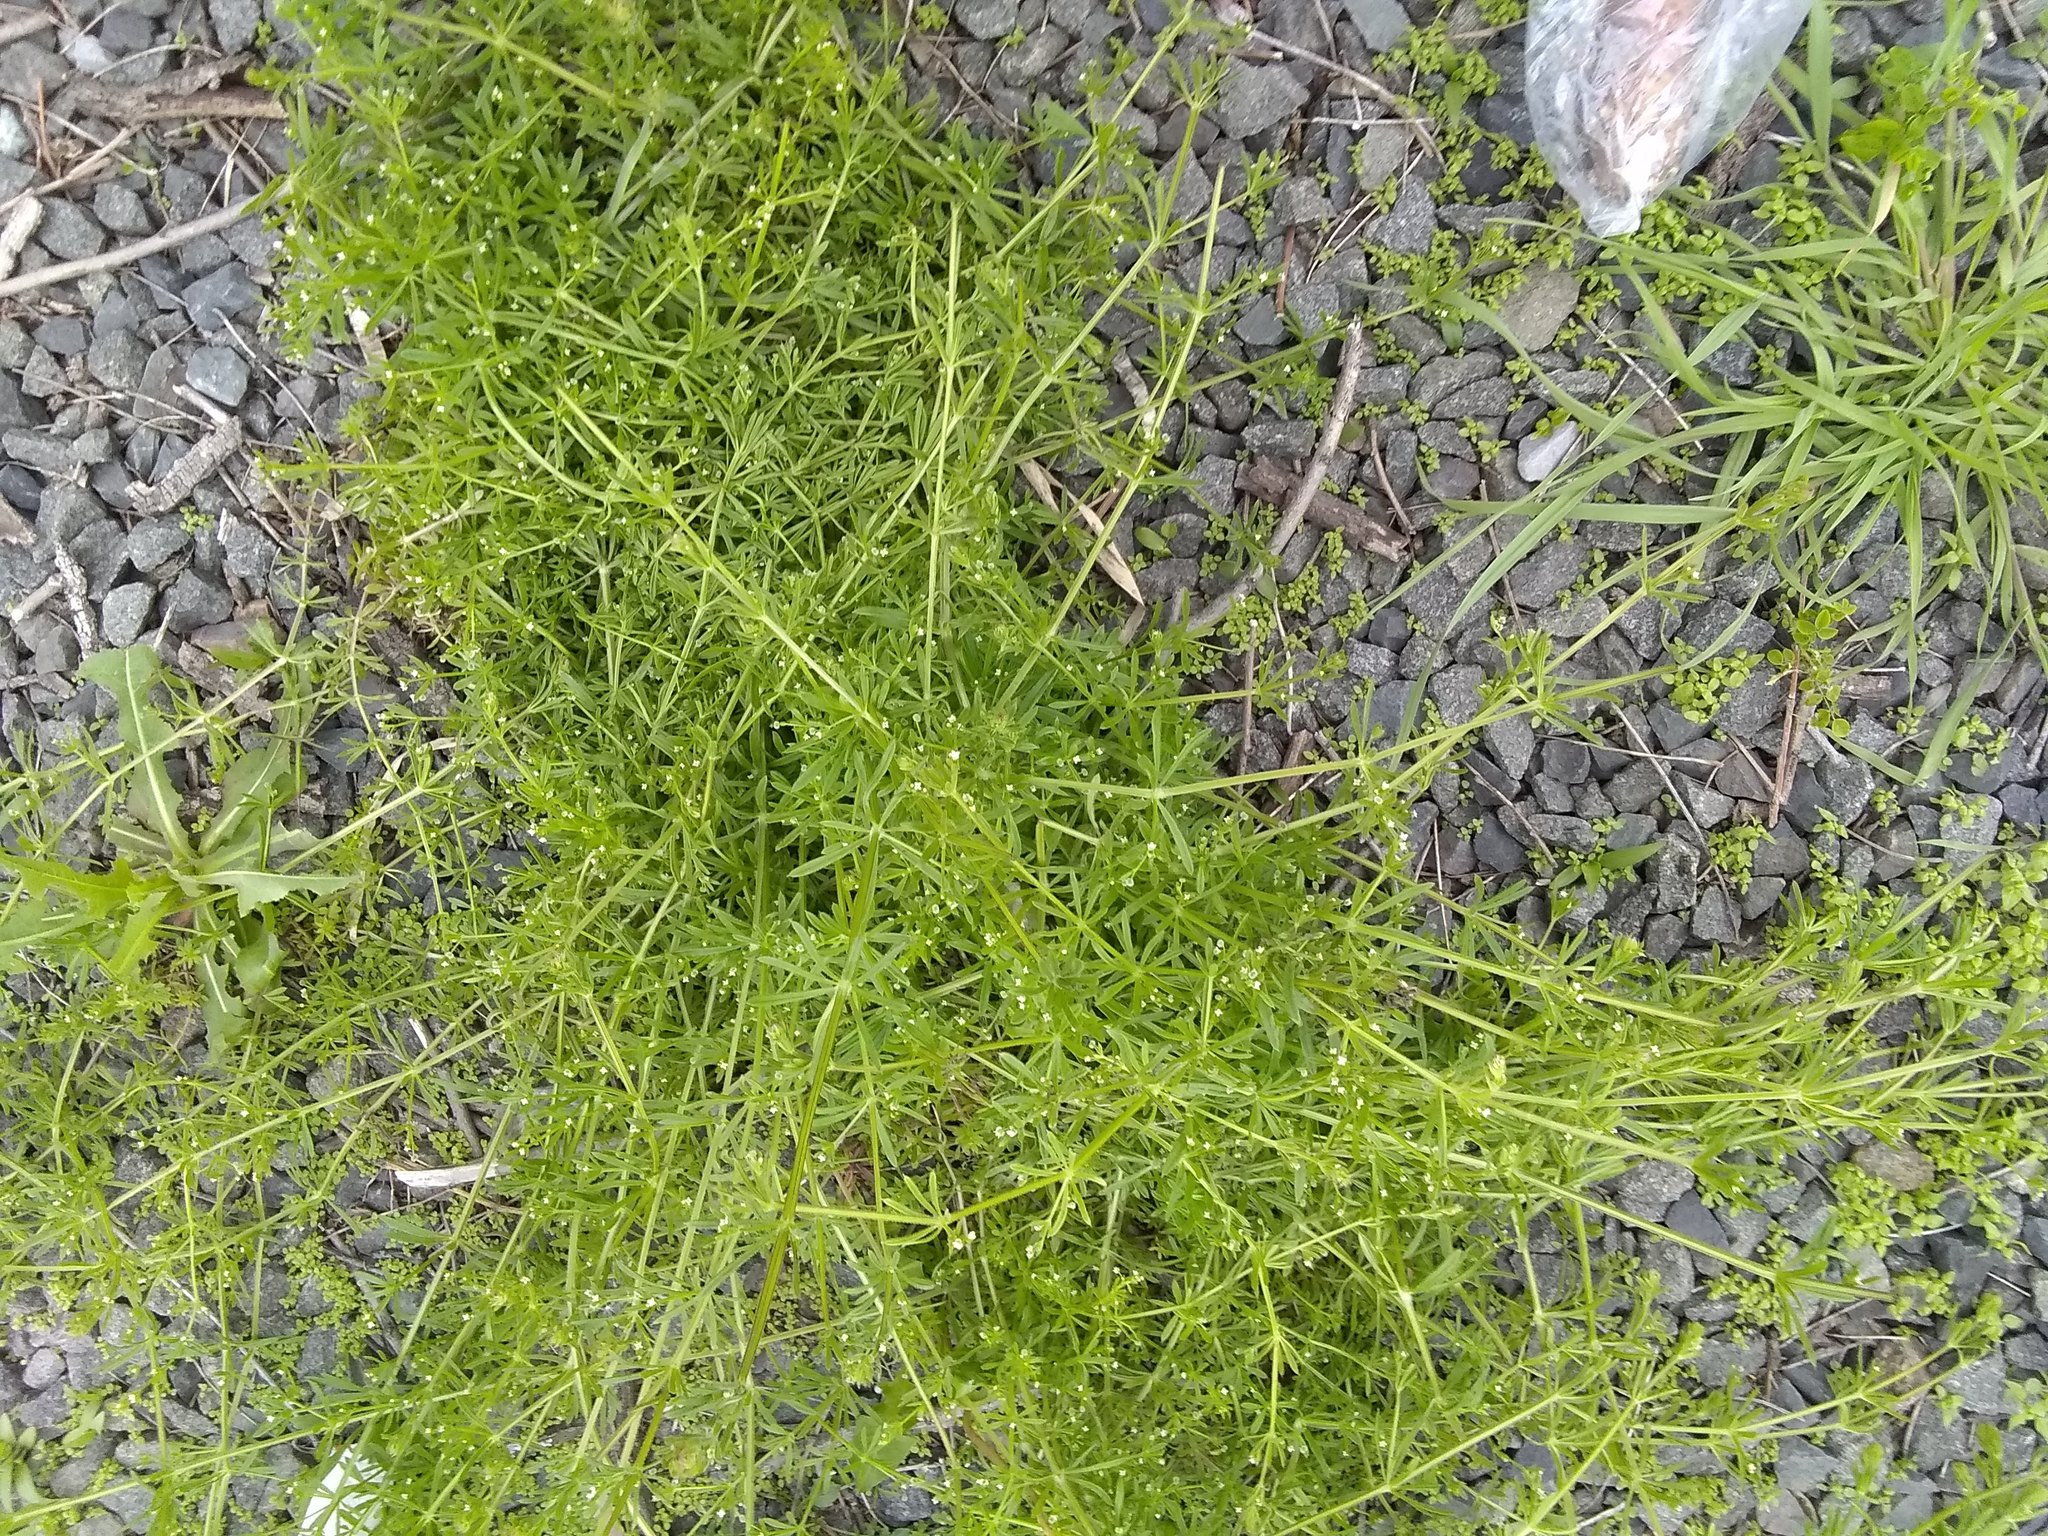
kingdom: Plantae
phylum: Tracheophyta
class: Magnoliopsida
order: Gentianales
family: Rubiaceae
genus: Galium
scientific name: Galium aparine
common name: Cleavers
